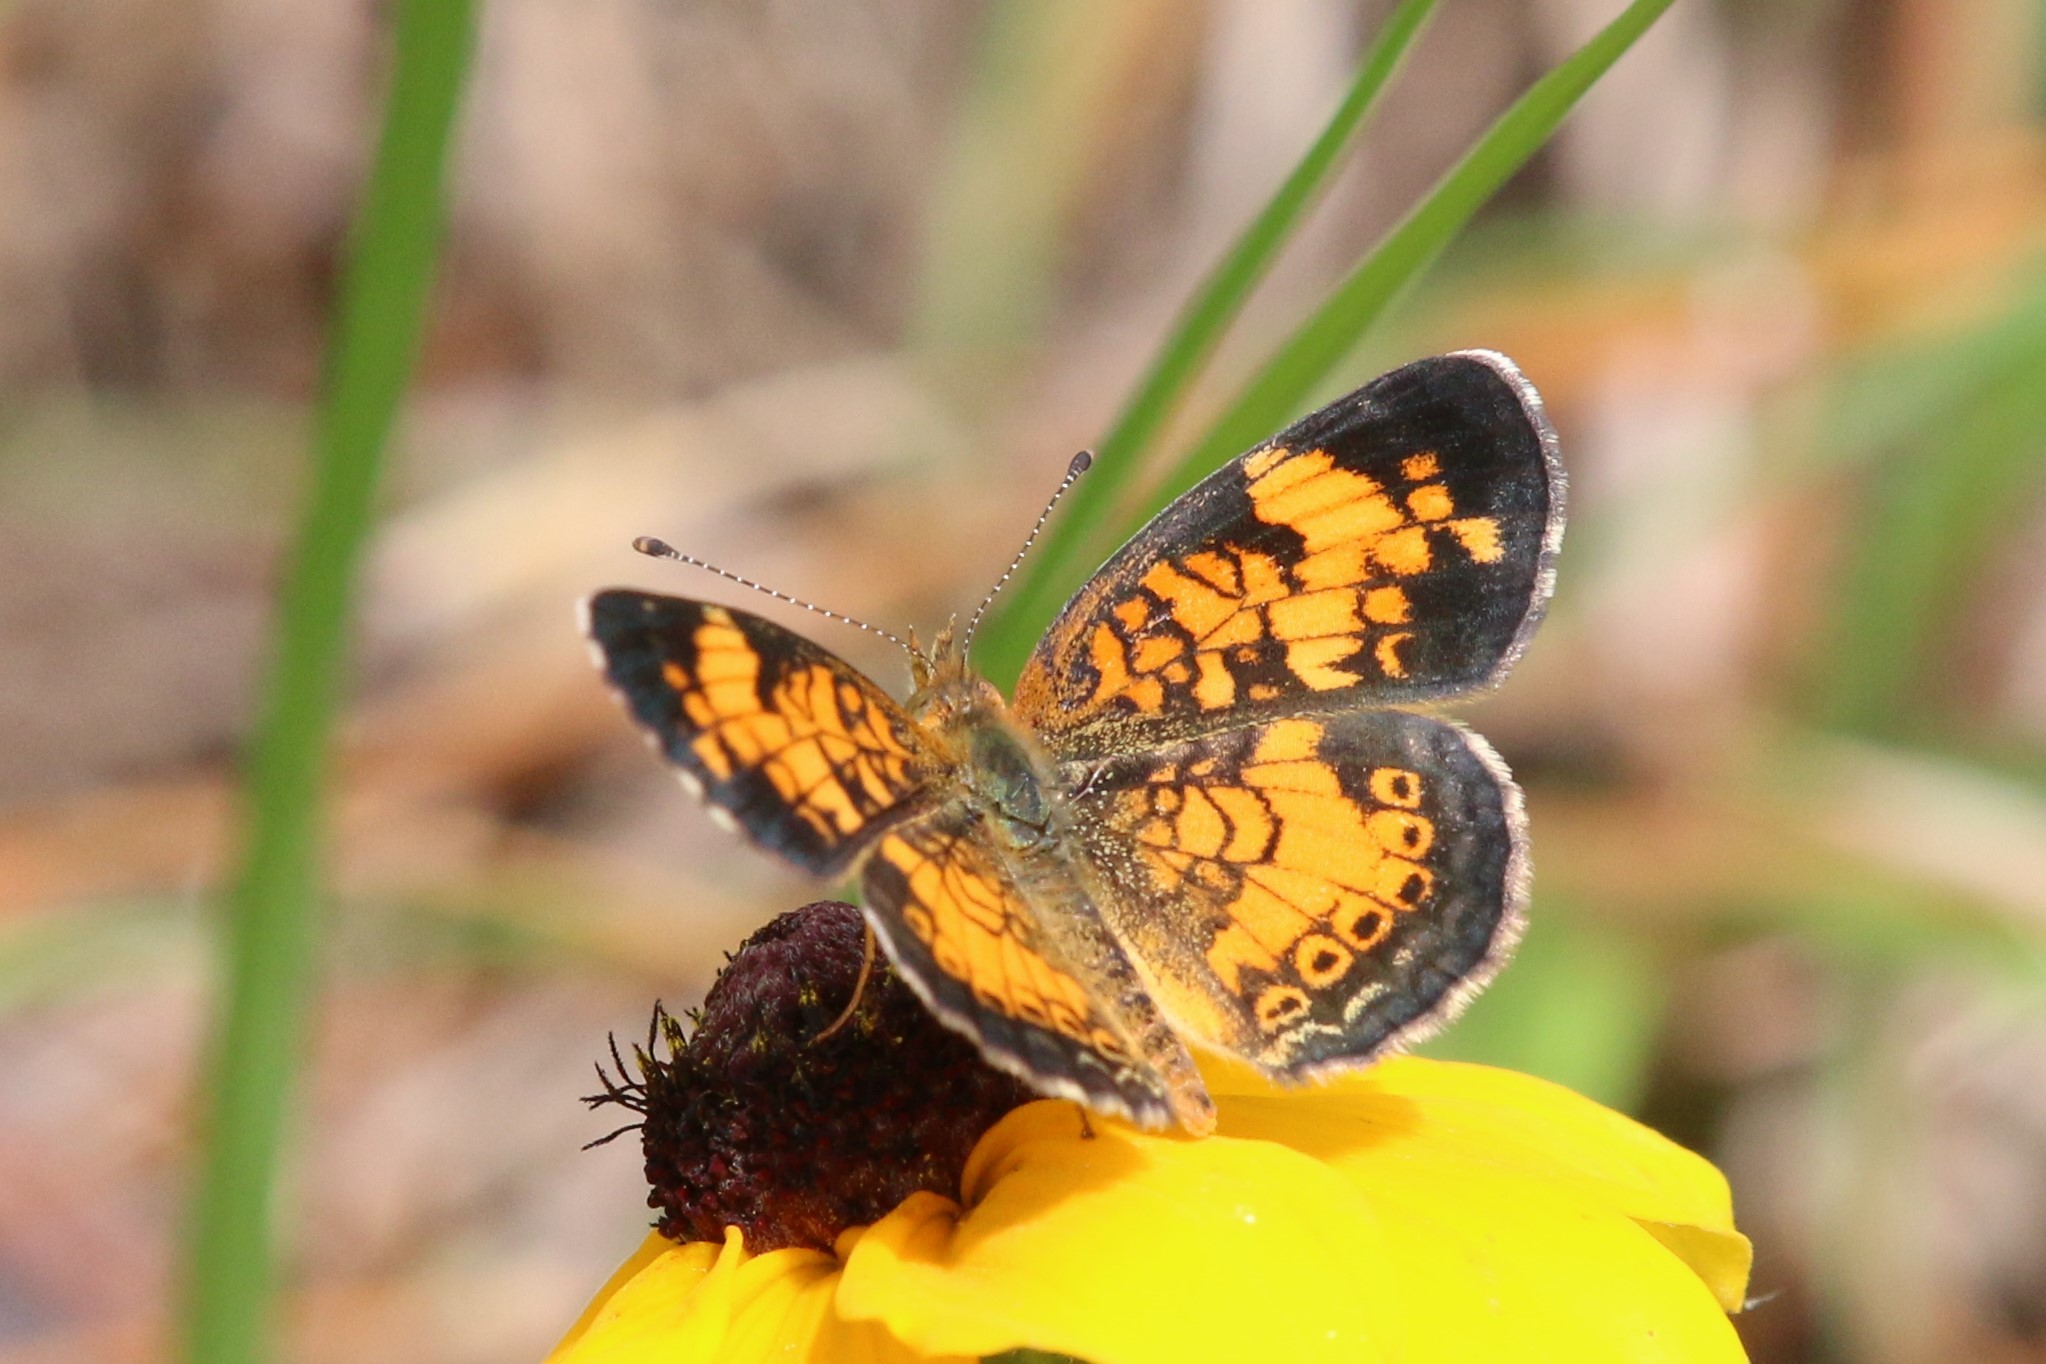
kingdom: Animalia
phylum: Arthropoda
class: Insecta
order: Lepidoptera
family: Nymphalidae
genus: Phyciodes
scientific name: Phyciodes tharos
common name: Pearl crescent
